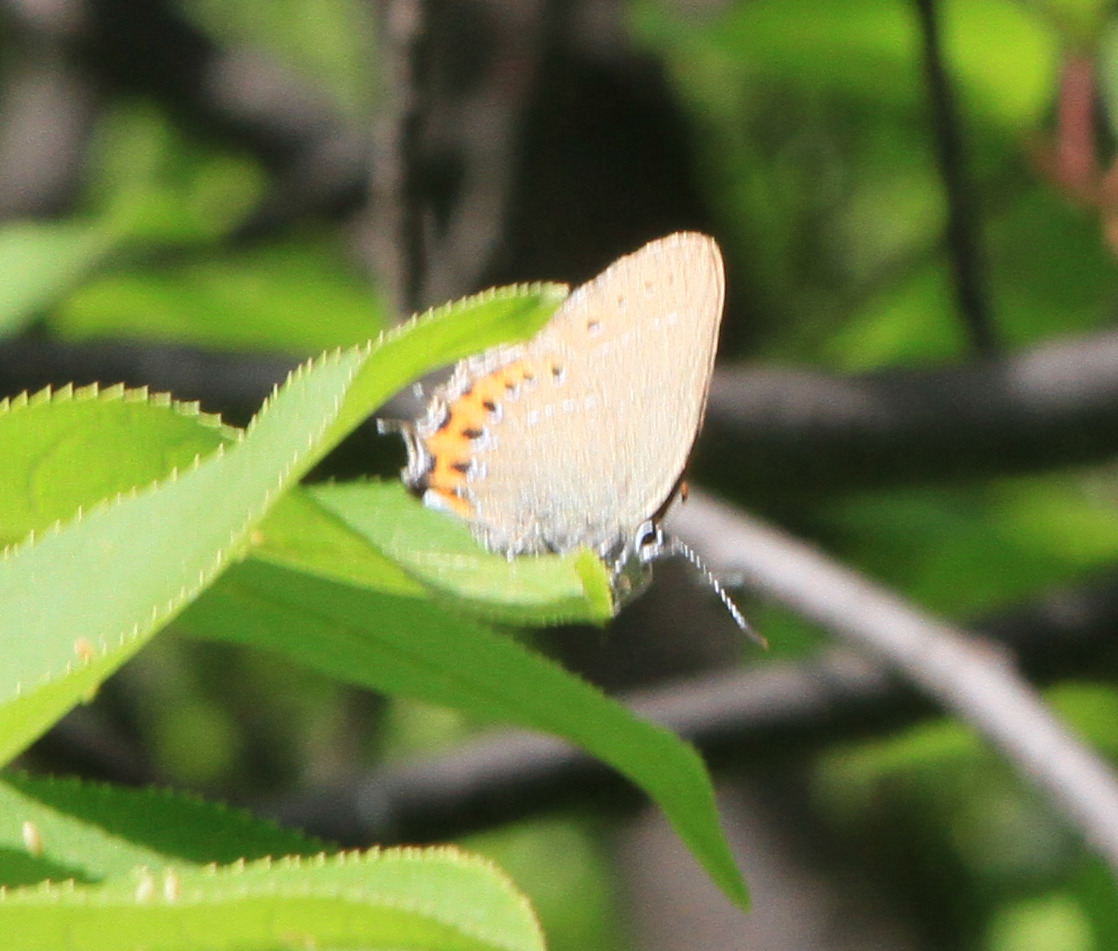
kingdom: Animalia
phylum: Arthropoda
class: Insecta
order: Lepidoptera
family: Lycaenidae
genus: Fixsenia
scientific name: Fixsenia pruni
